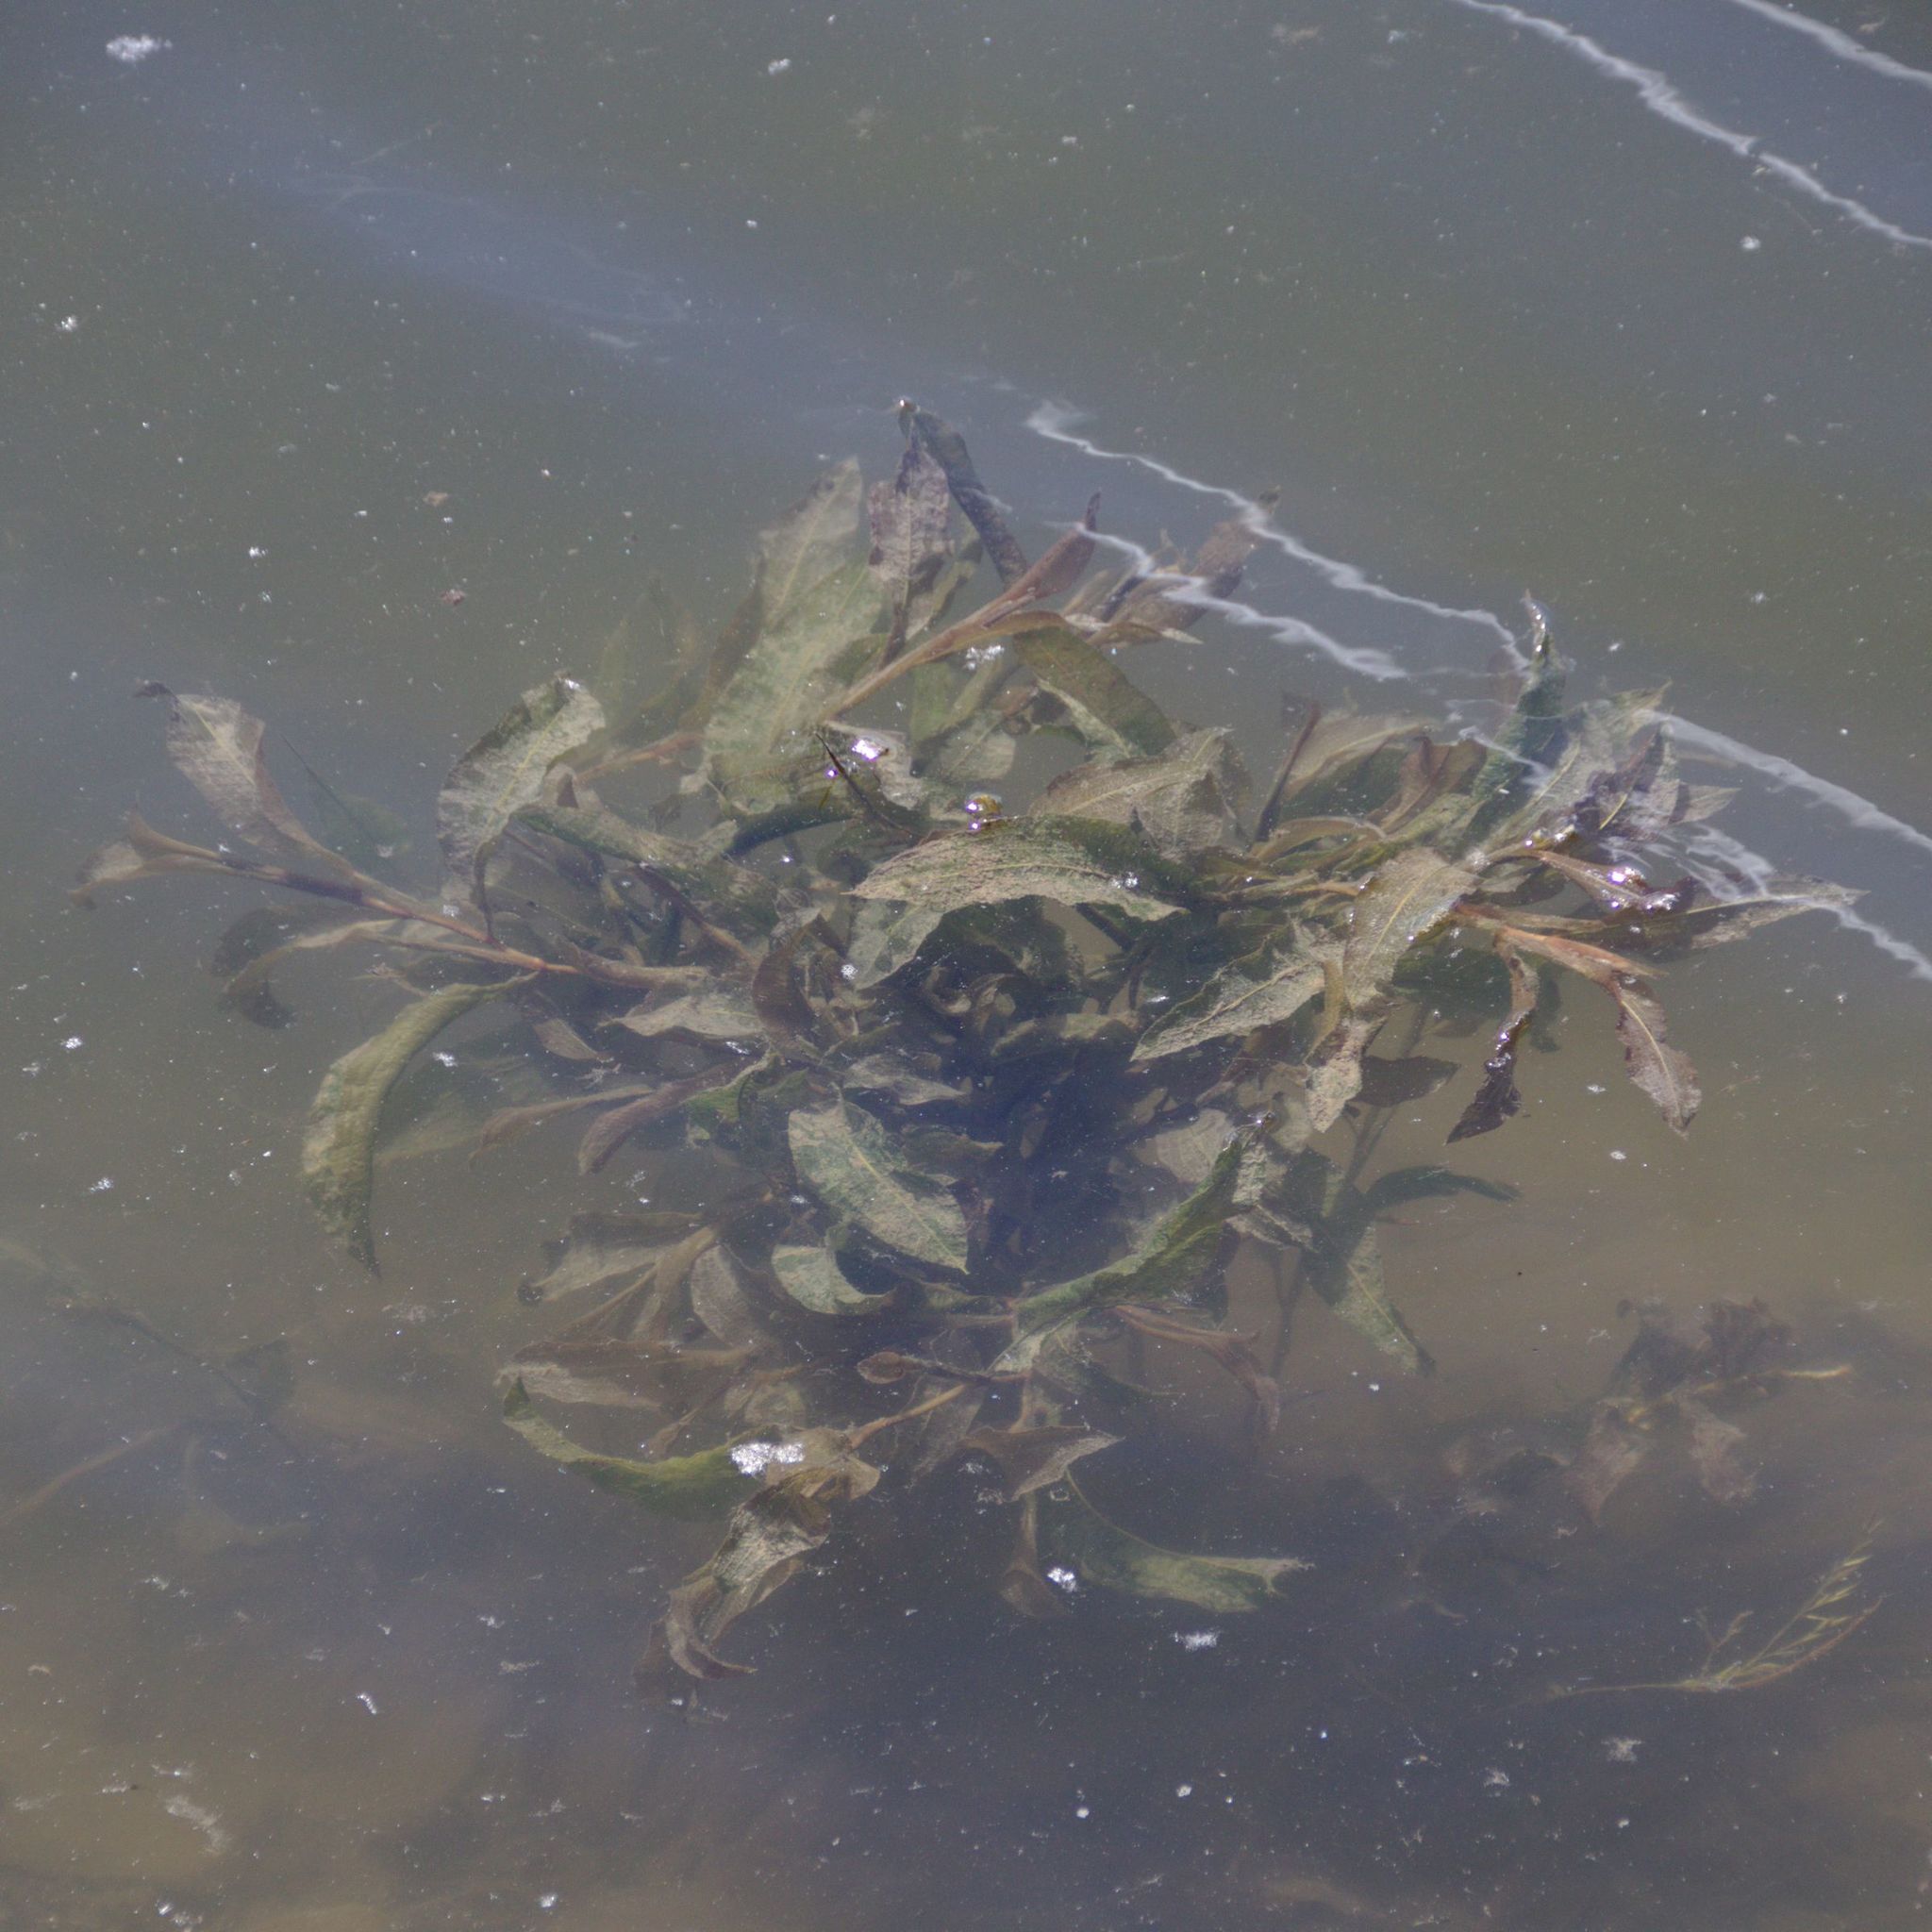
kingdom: Plantae
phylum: Tracheophyta
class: Liliopsida
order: Alismatales
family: Potamogetonaceae
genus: Potamogeton
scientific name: Potamogeton lucens
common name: Shining pondweed
